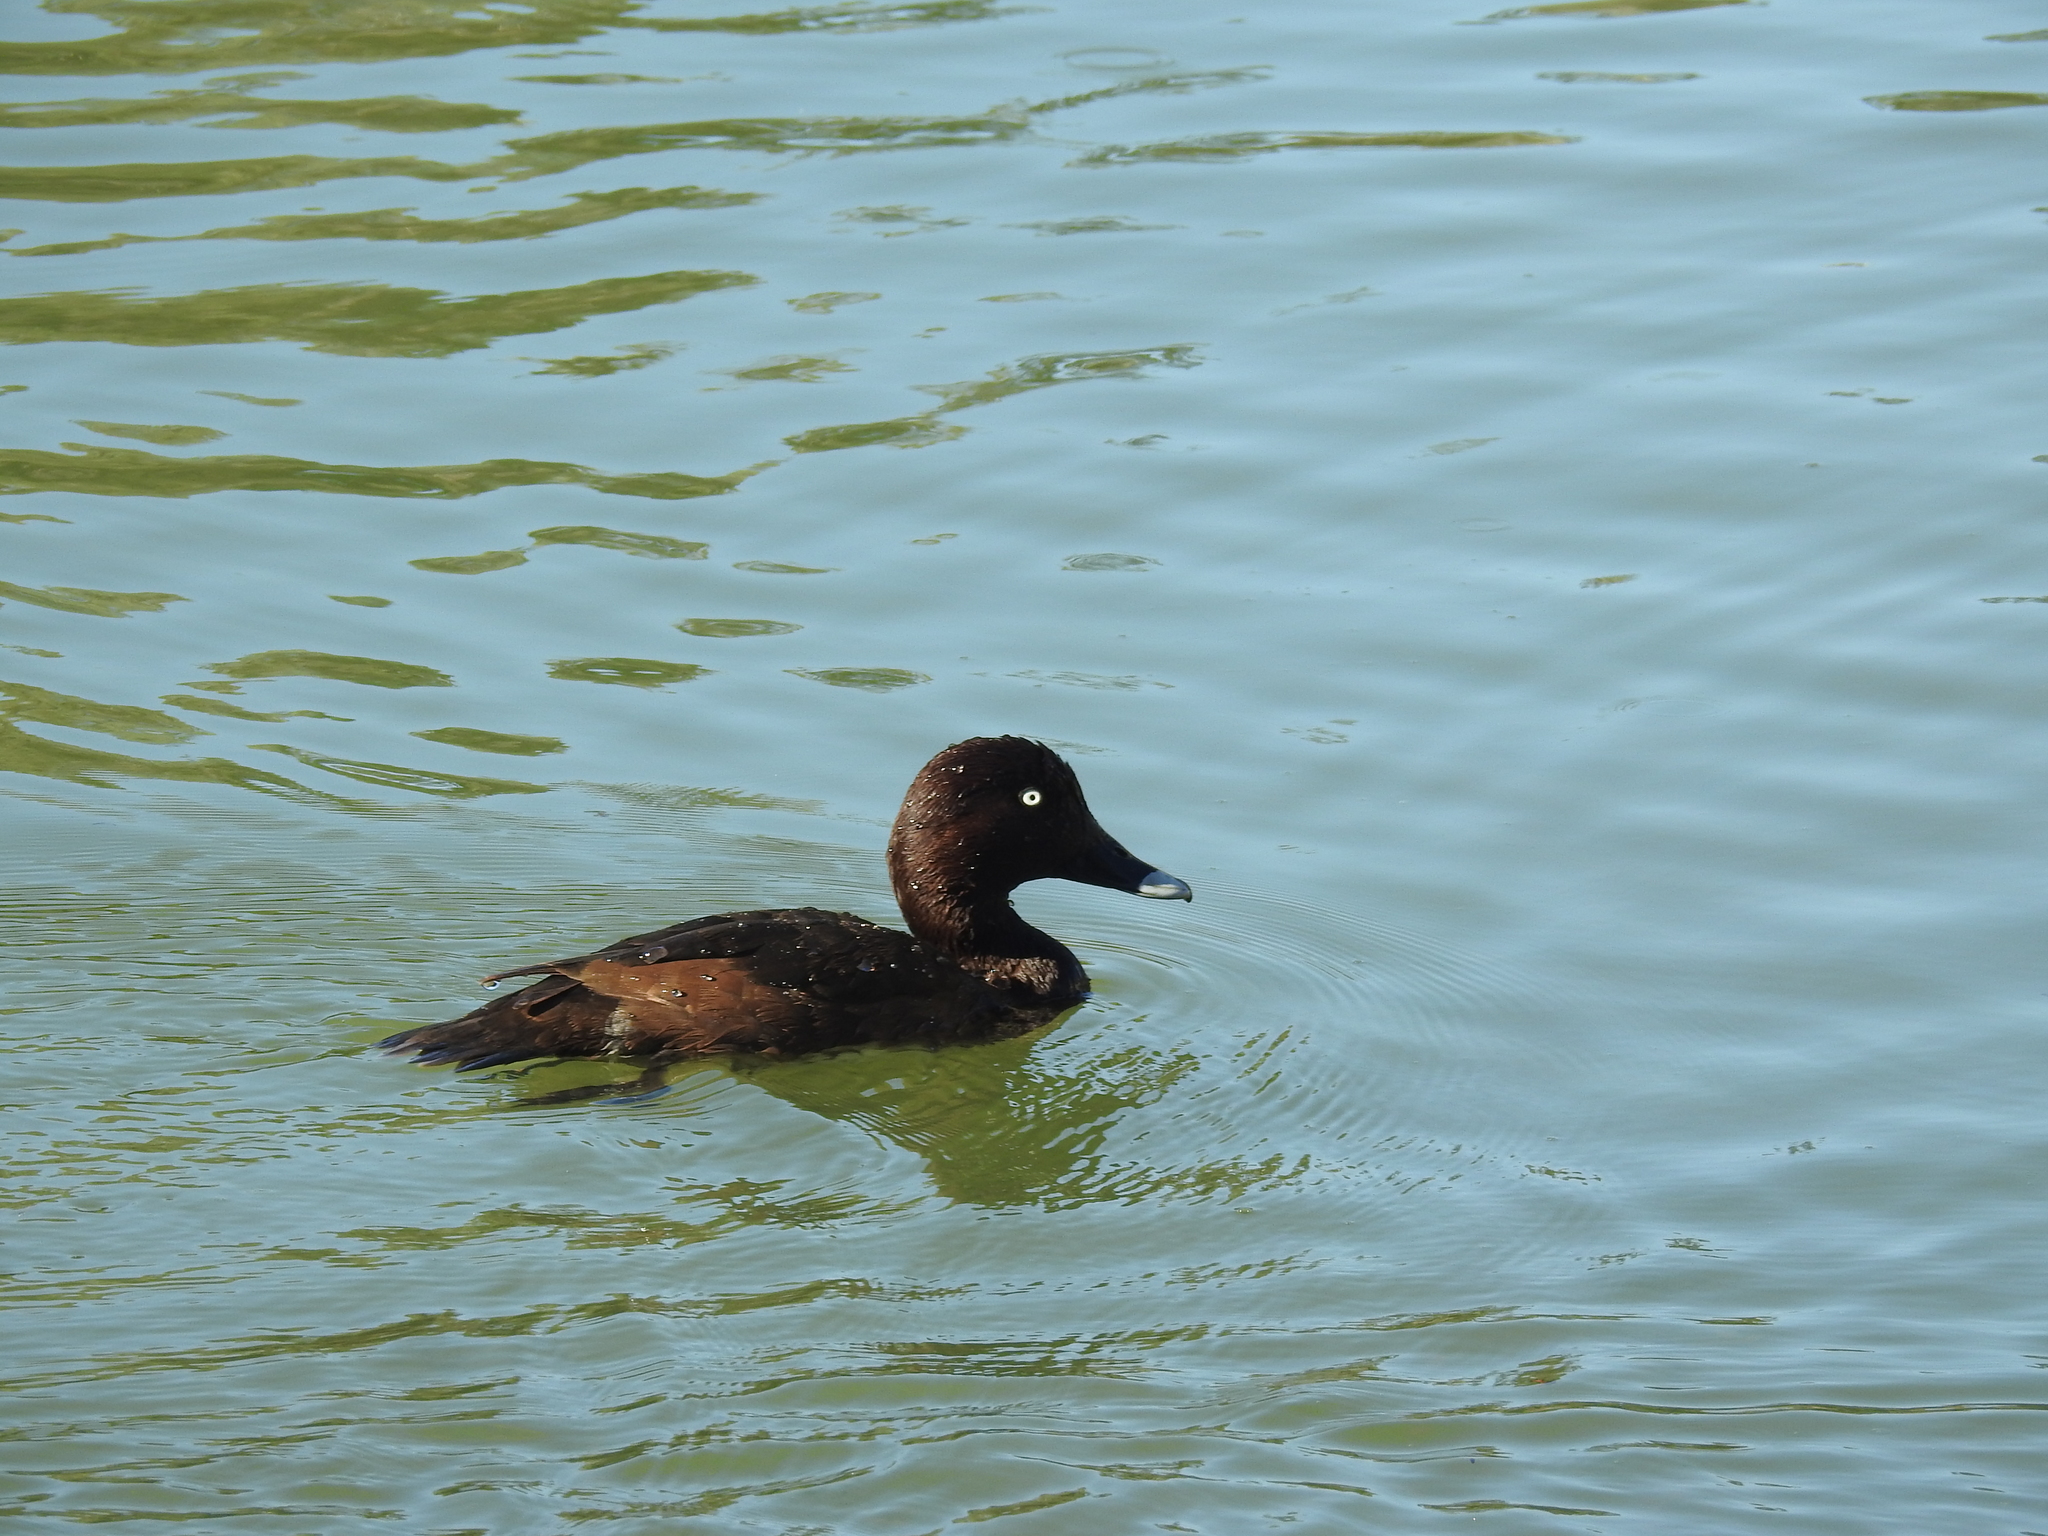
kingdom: Animalia
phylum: Chordata
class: Aves
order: Anseriformes
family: Anatidae
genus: Aythya
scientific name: Aythya australis
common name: Hardhead
